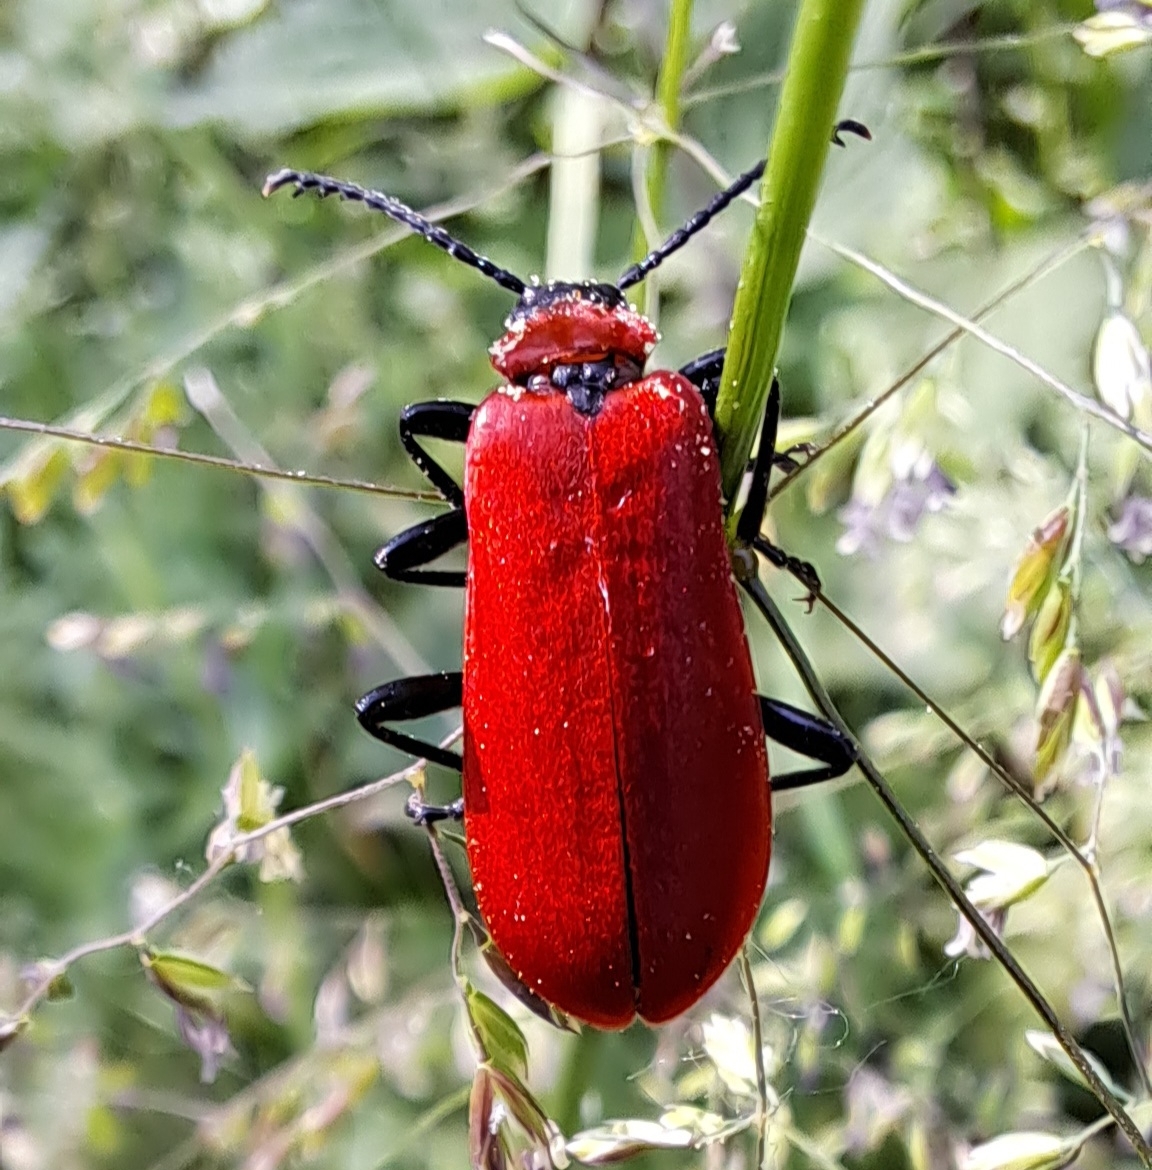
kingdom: Animalia
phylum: Arthropoda
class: Insecta
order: Coleoptera
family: Pyrochroidae
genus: Pyrochroa
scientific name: Pyrochroa coccinea
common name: Black-headed cardinal beetle
